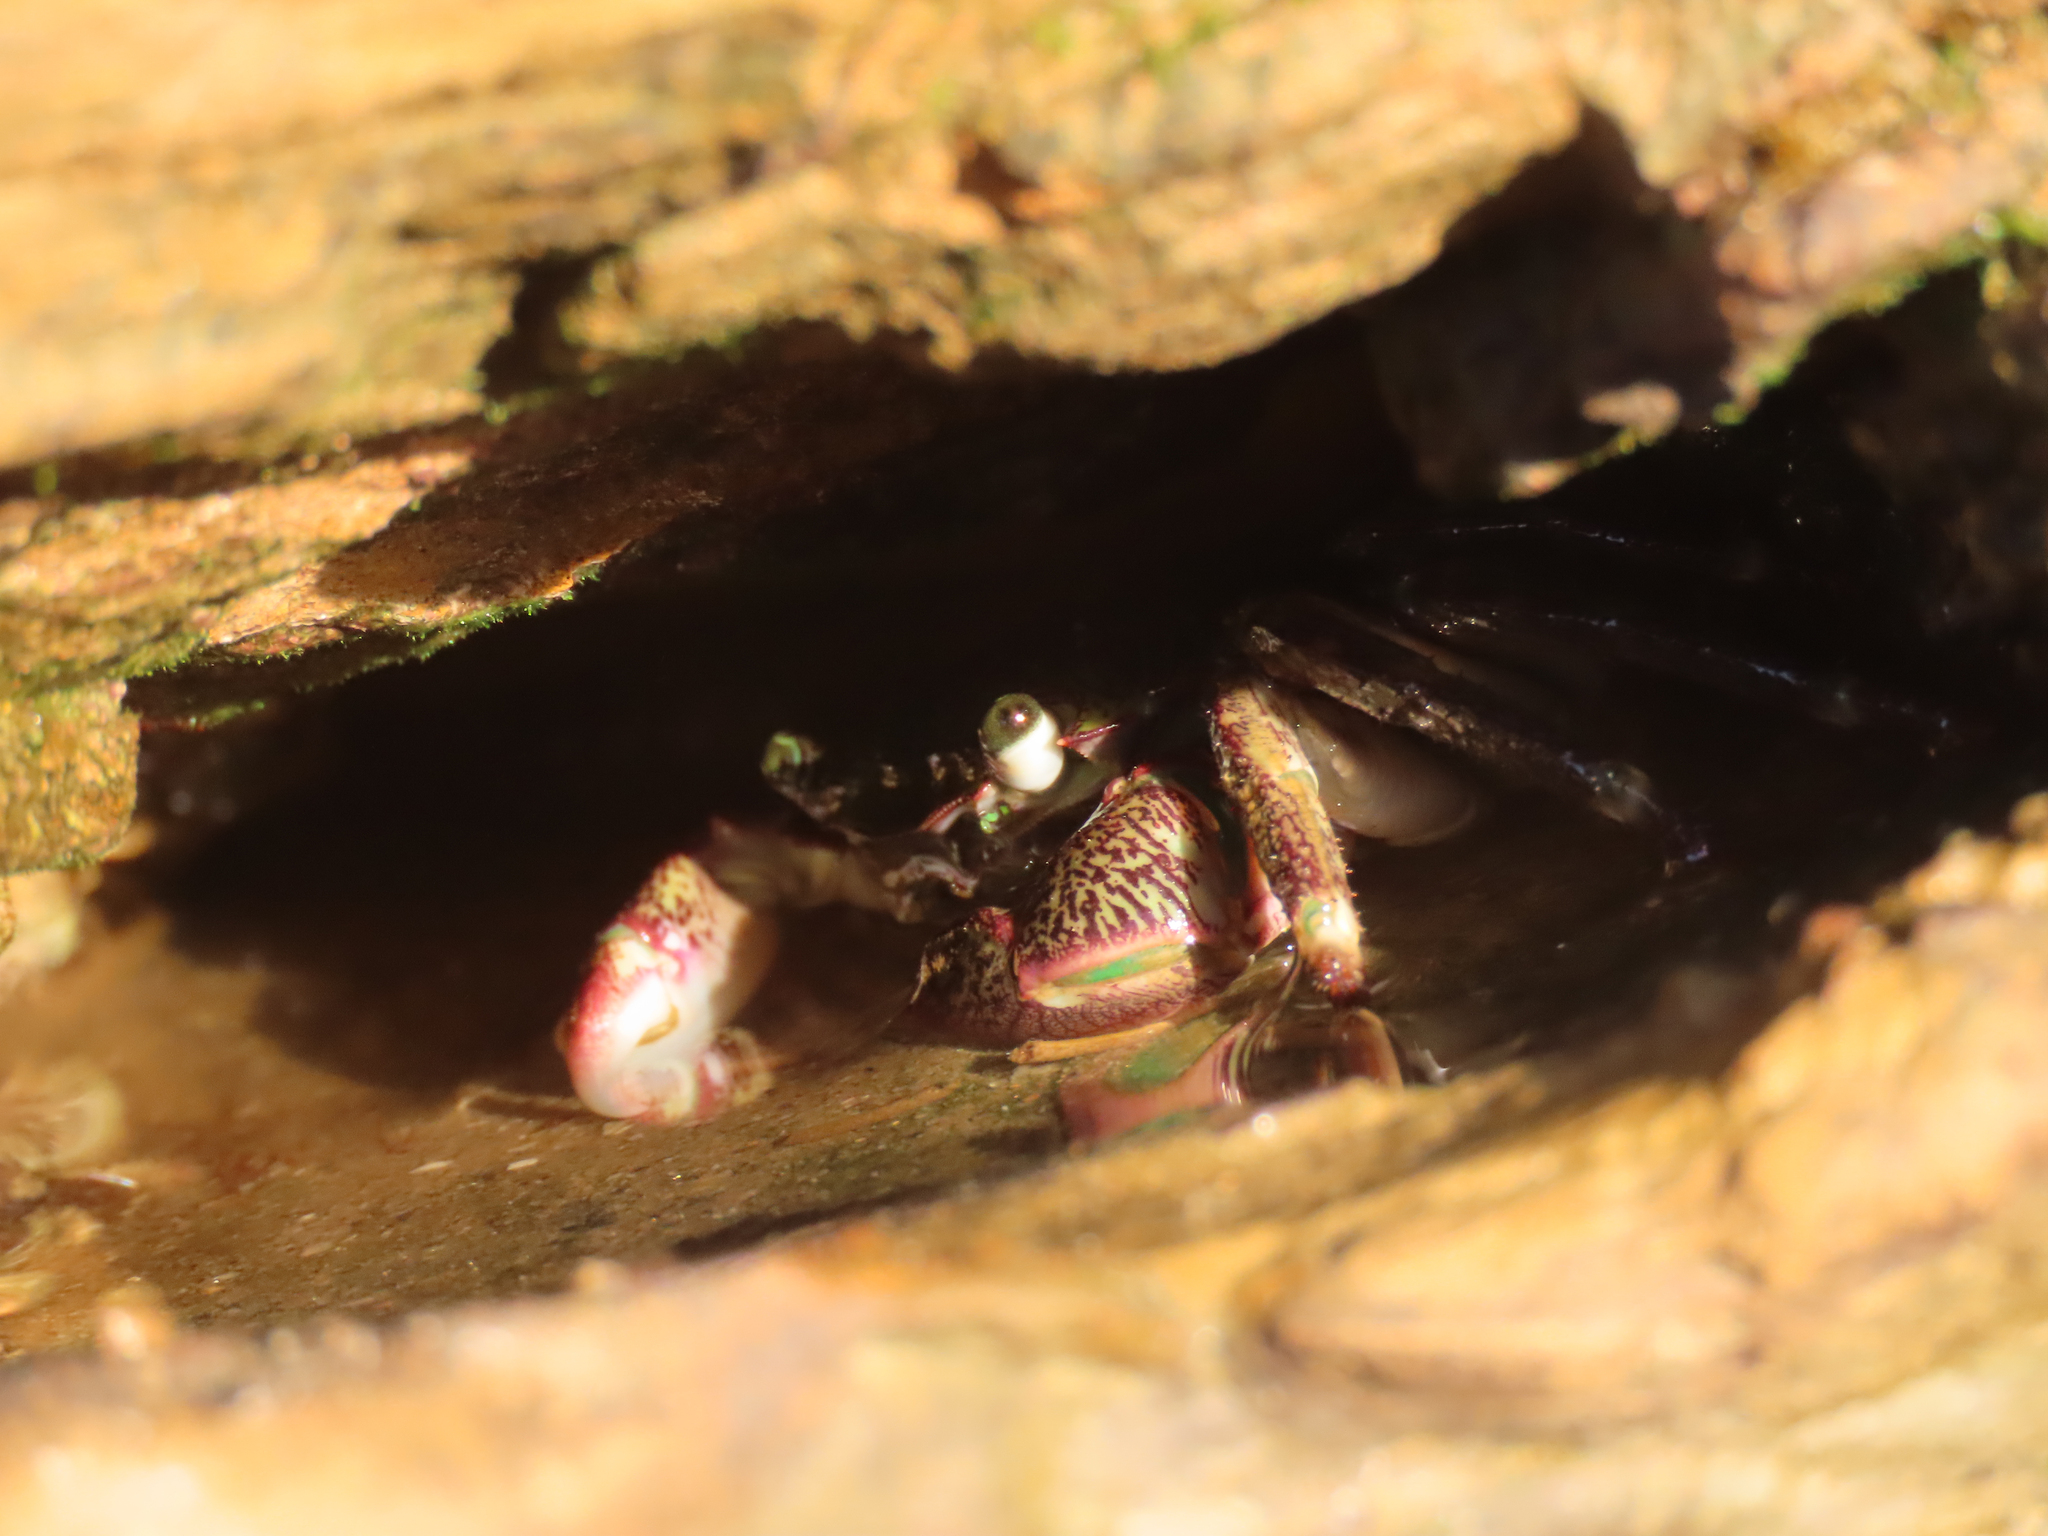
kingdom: Animalia
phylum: Arthropoda
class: Malacostraca
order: Decapoda
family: Grapsidae
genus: Pachygrapsus
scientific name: Pachygrapsus crassipes
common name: Striped shore crab
